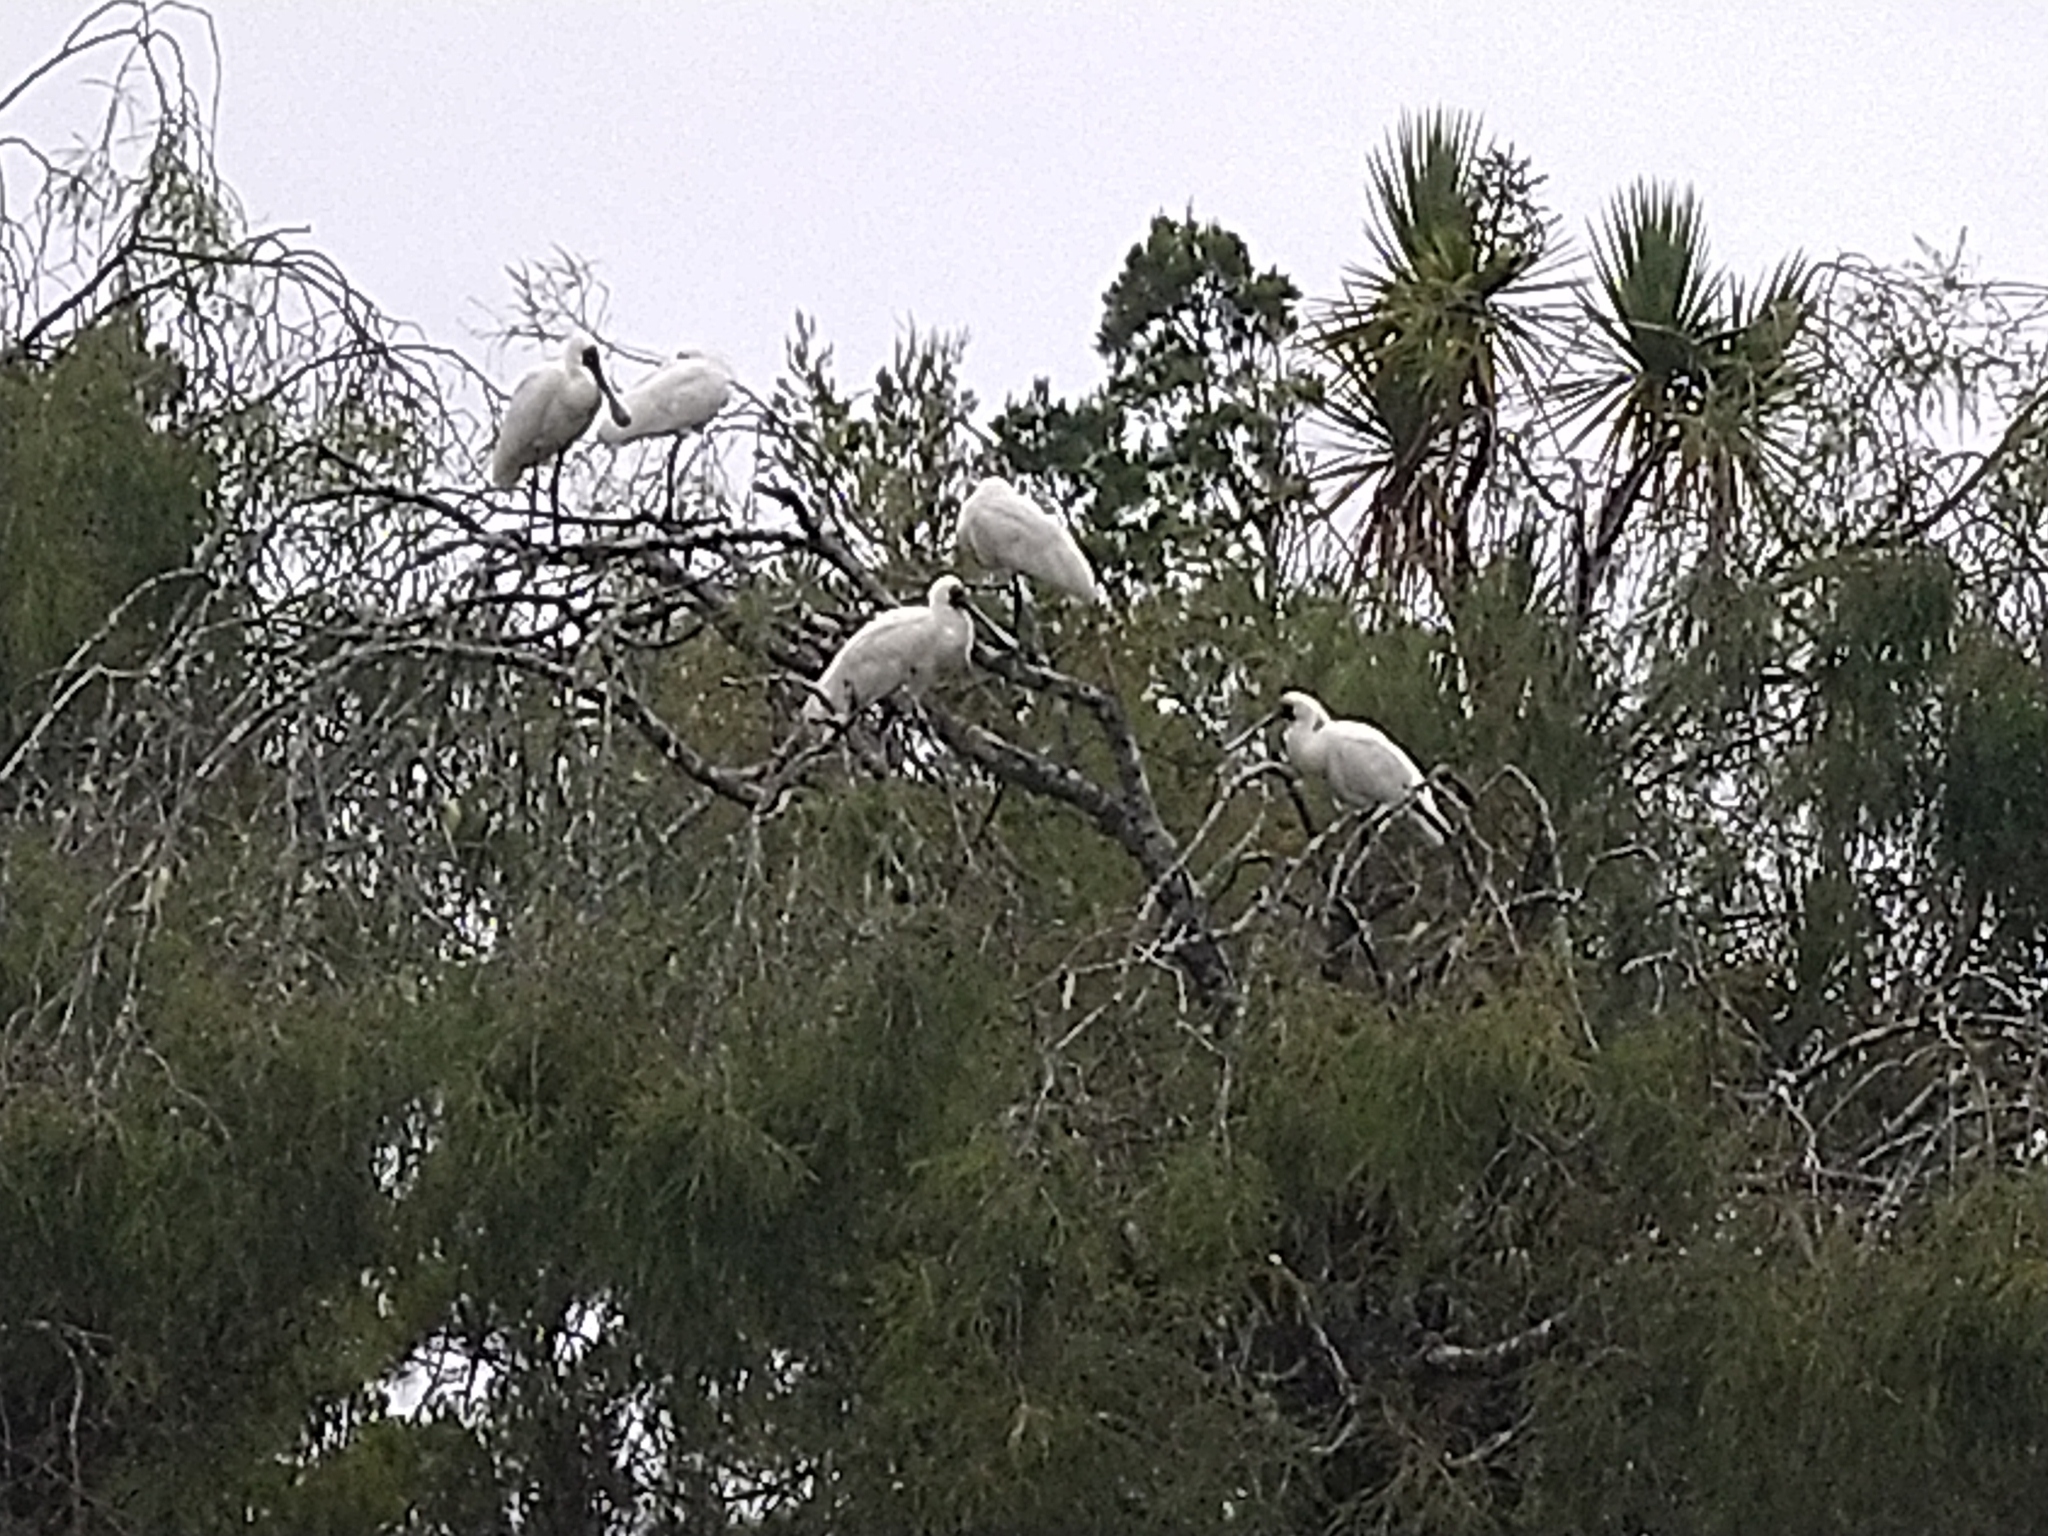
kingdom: Animalia
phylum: Chordata
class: Aves
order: Pelecaniformes
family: Threskiornithidae
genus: Platalea
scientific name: Platalea regia
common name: Royal spoonbill
